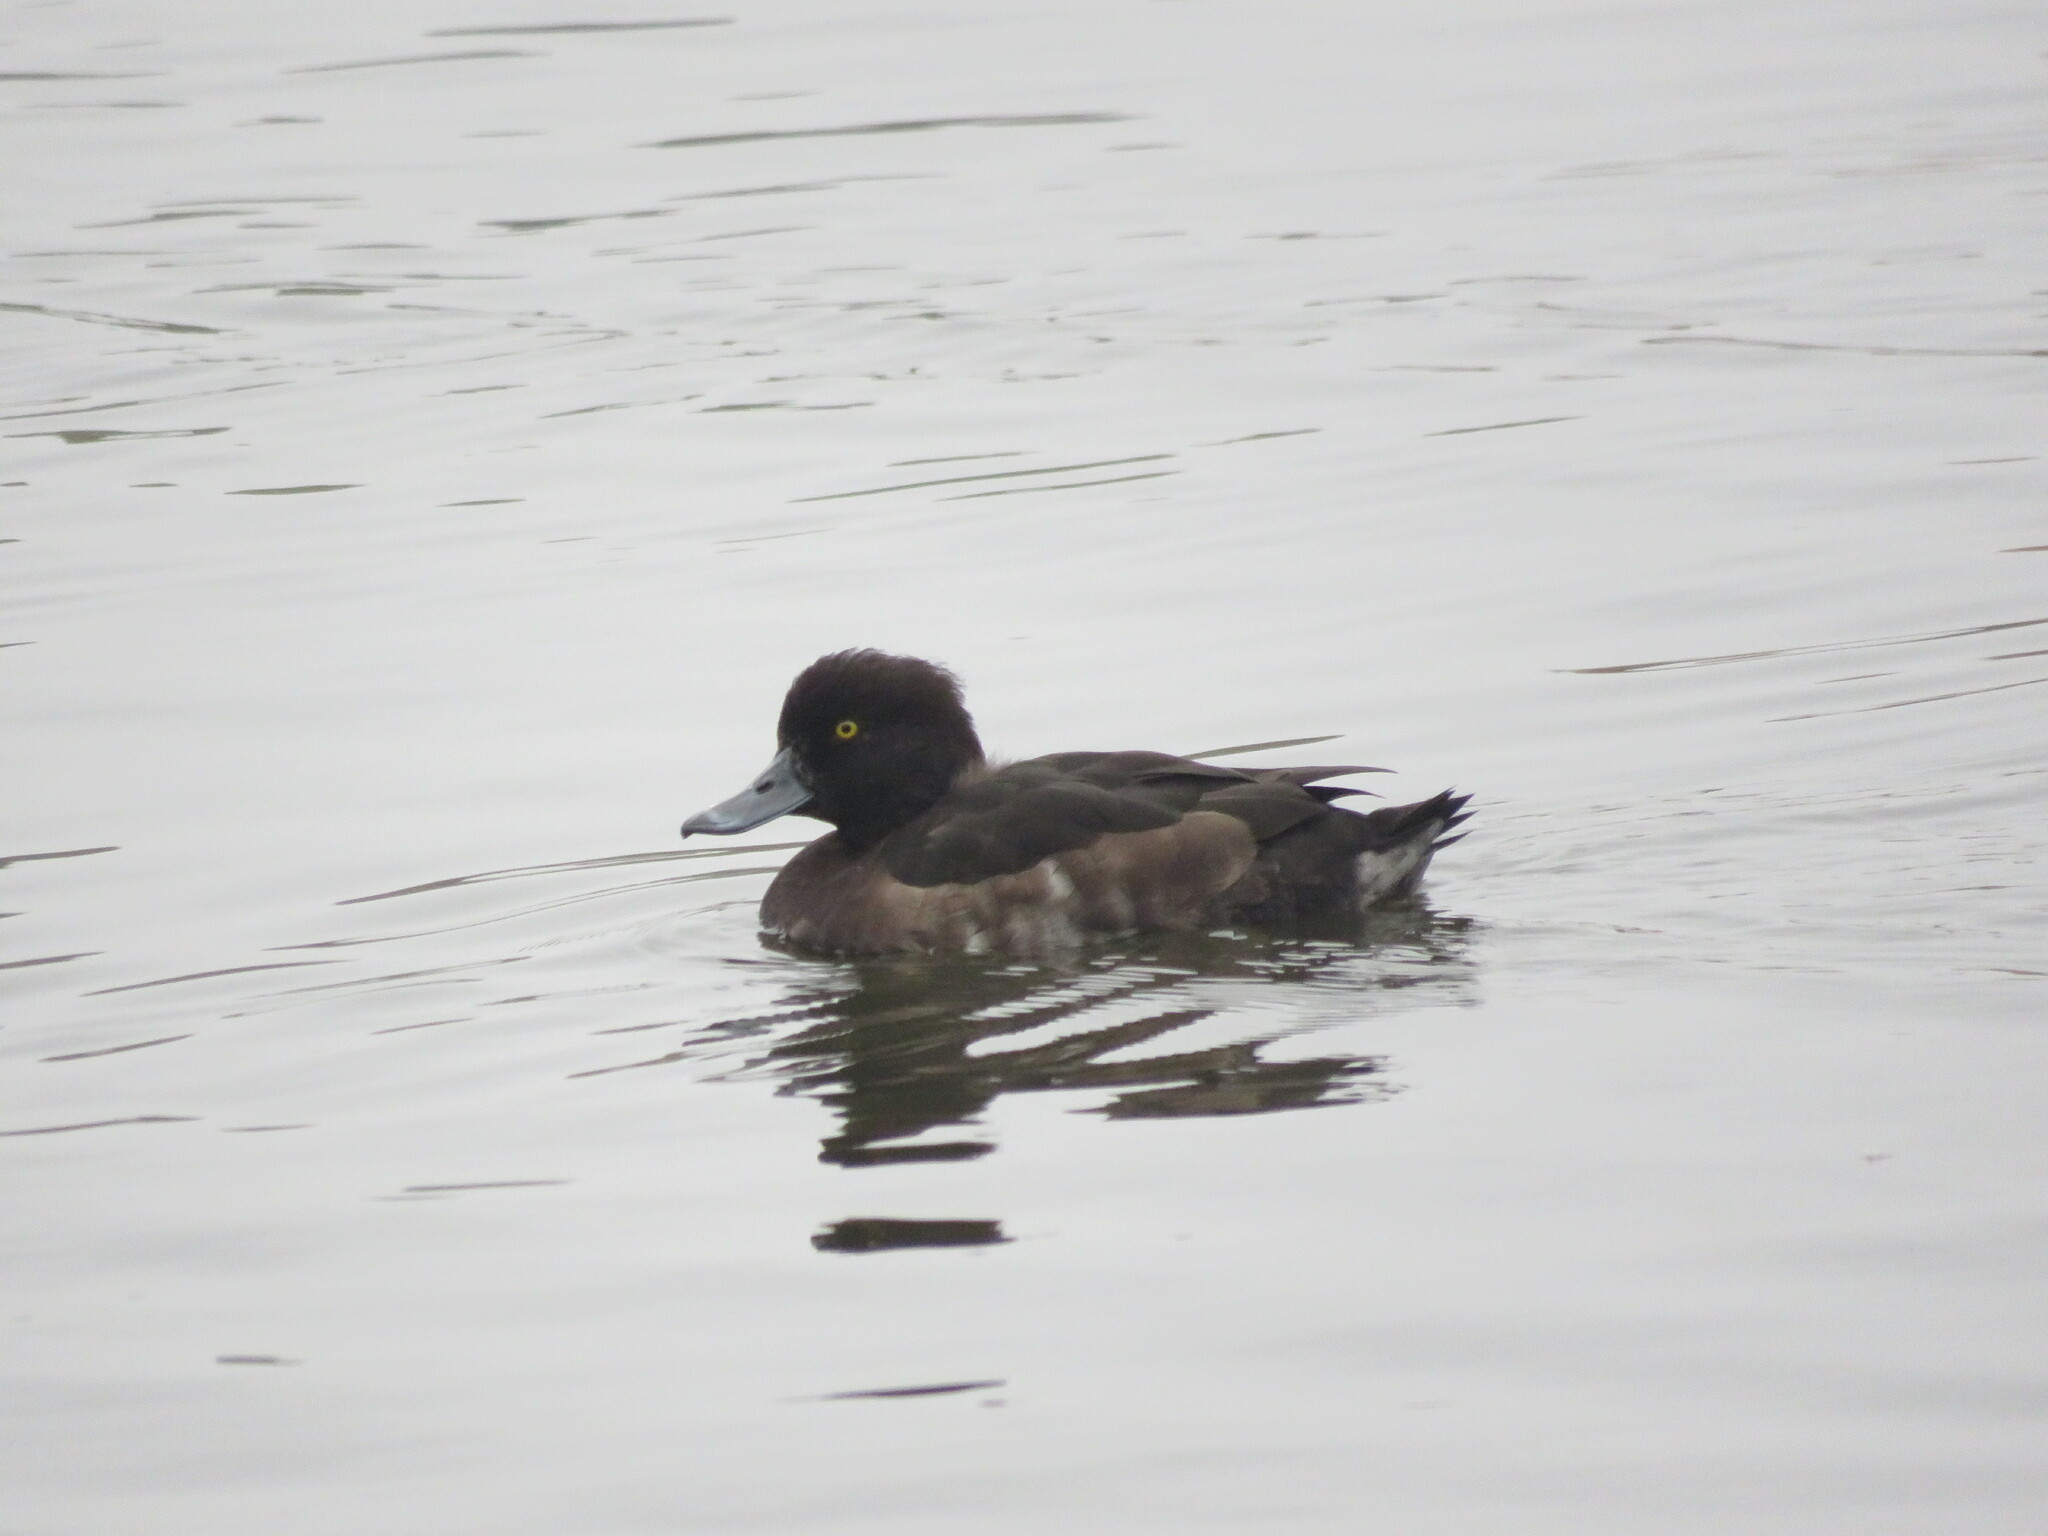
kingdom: Animalia
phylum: Chordata
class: Aves
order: Anseriformes
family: Anatidae
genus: Aythya
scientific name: Aythya fuligula
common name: Tufted duck
